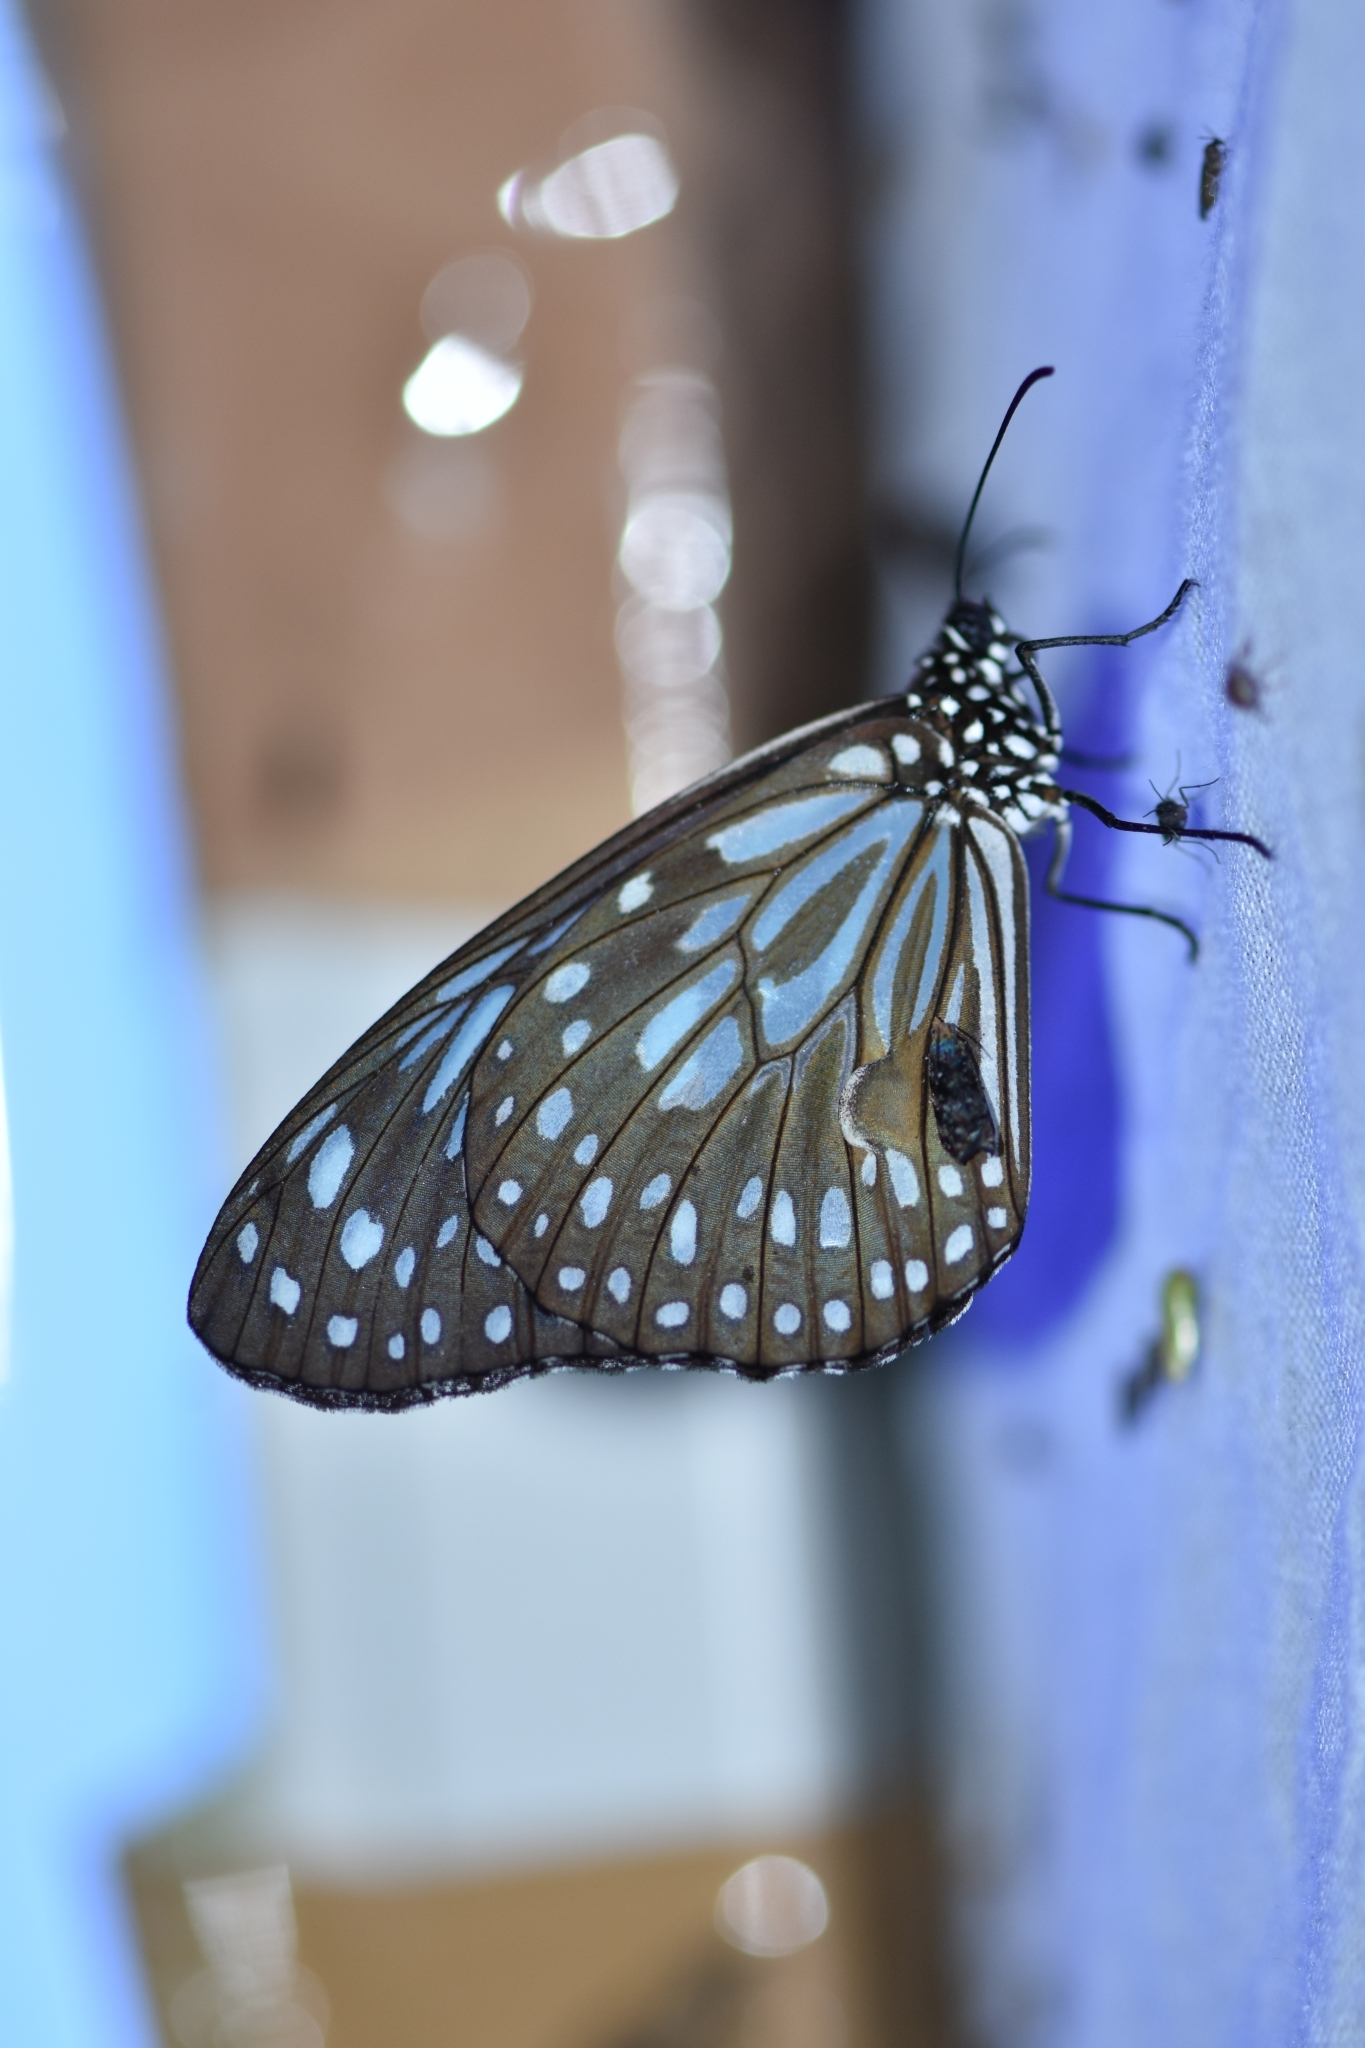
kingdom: Animalia
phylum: Arthropoda
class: Insecta
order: Lepidoptera
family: Nymphalidae
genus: Tirumala
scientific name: Tirumala septentrionis
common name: Dark blue tiger butterfly
